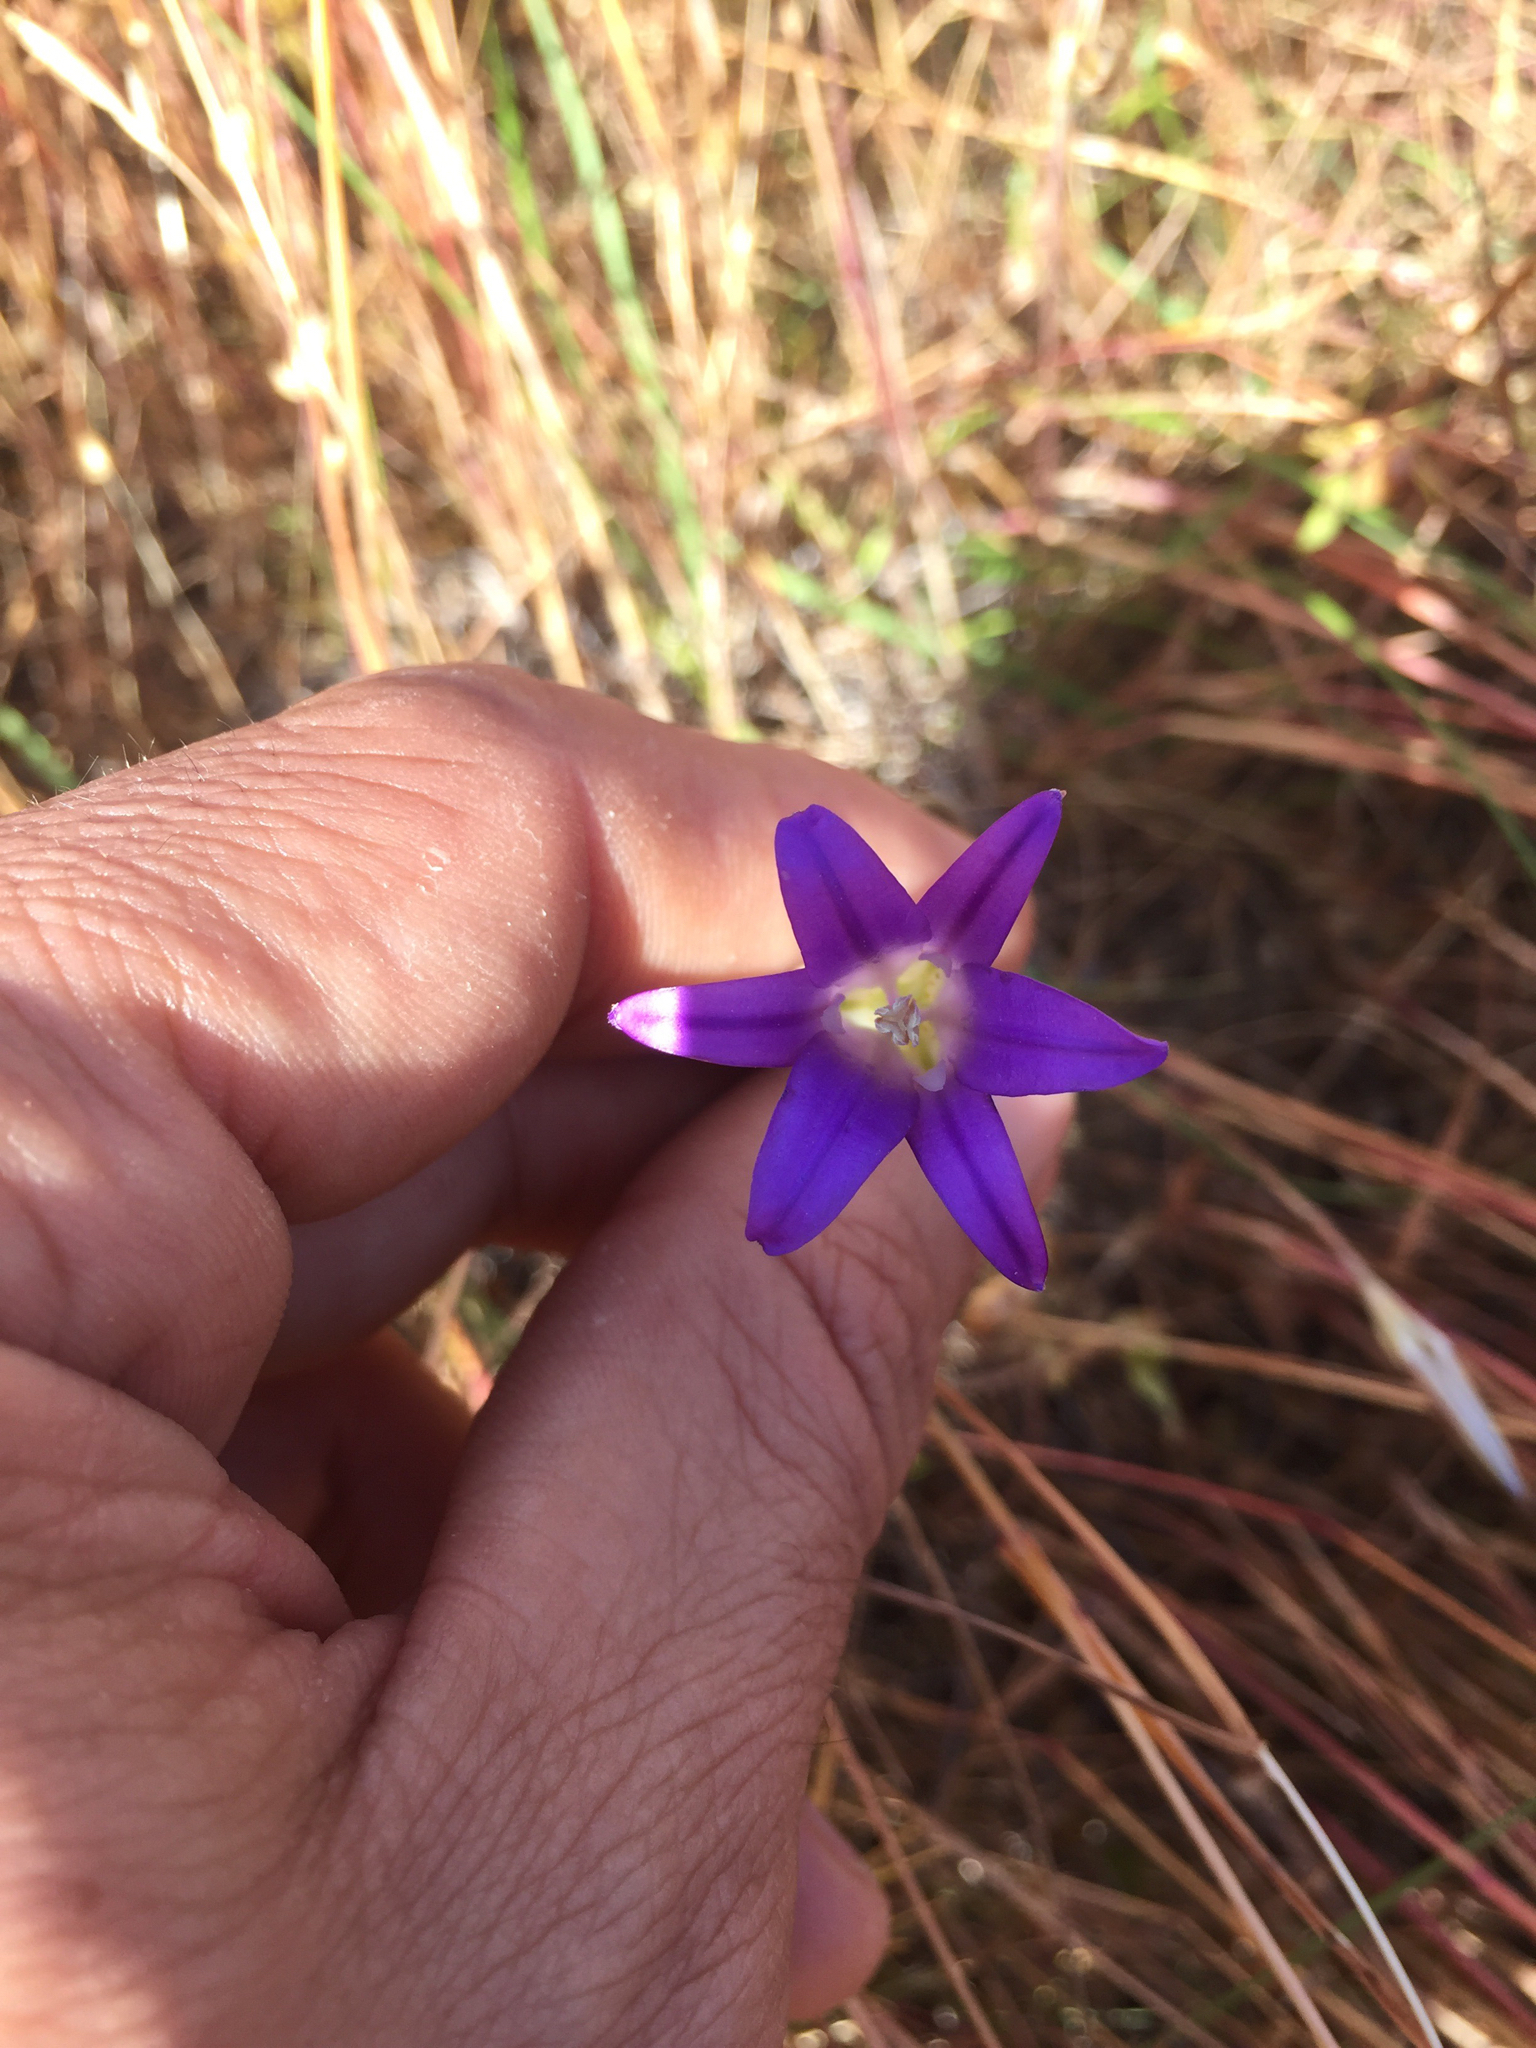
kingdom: Plantae
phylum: Tracheophyta
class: Liliopsida
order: Asparagales
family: Asparagaceae
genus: Brodiaea
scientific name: Brodiaea elegans
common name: Elegant cluster-lily
